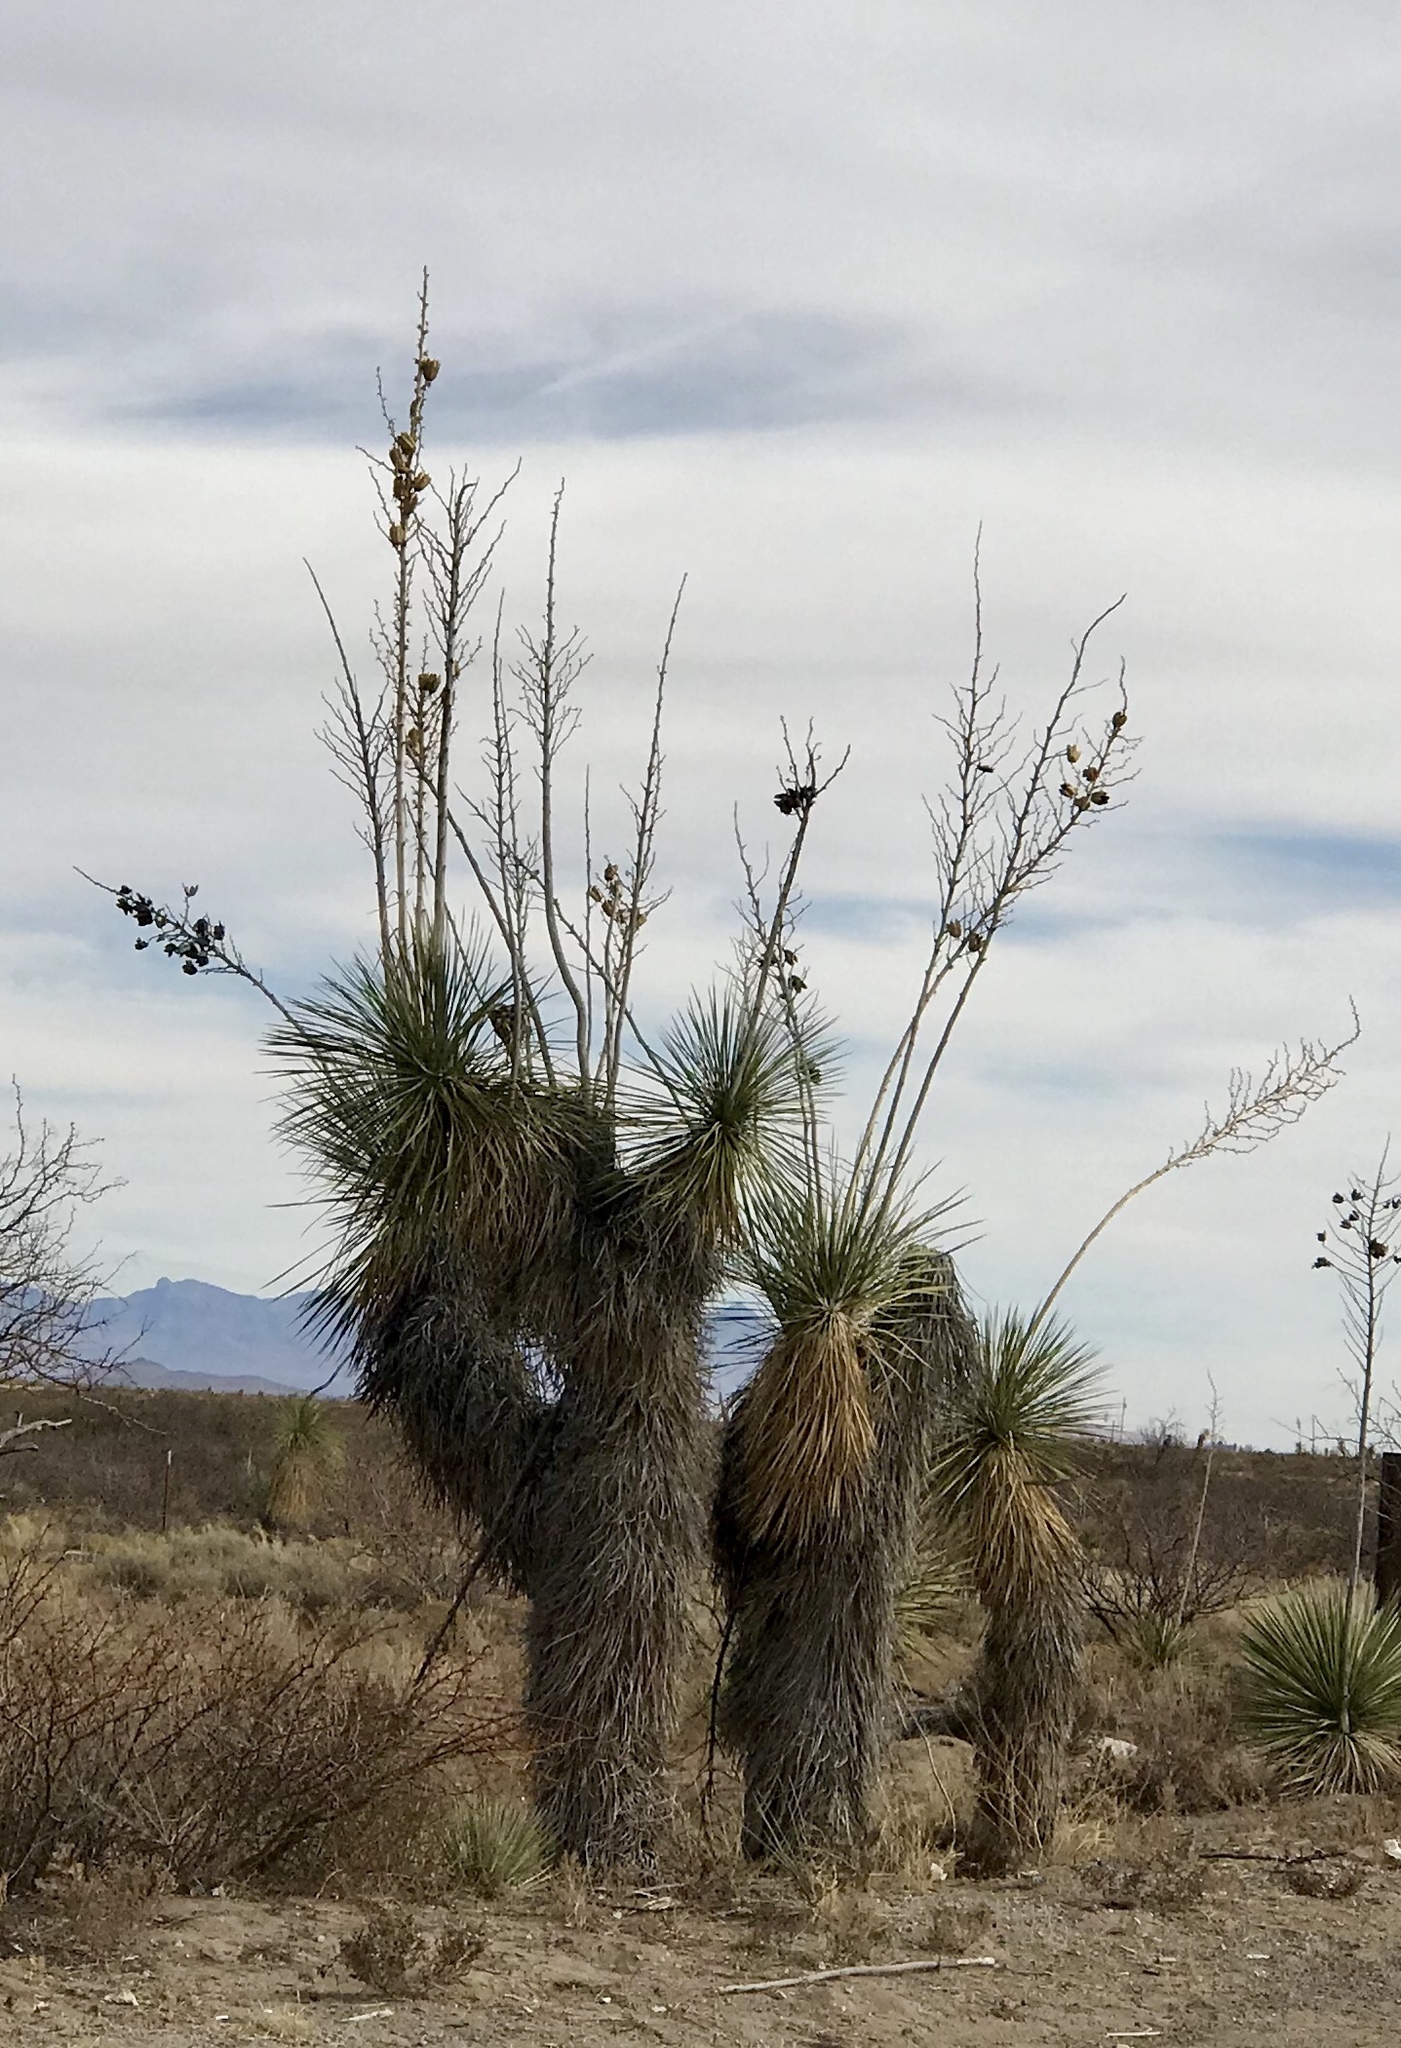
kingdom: Plantae
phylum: Tracheophyta
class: Liliopsida
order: Asparagales
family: Asparagaceae
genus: Yucca
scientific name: Yucca elata
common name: Palmella
